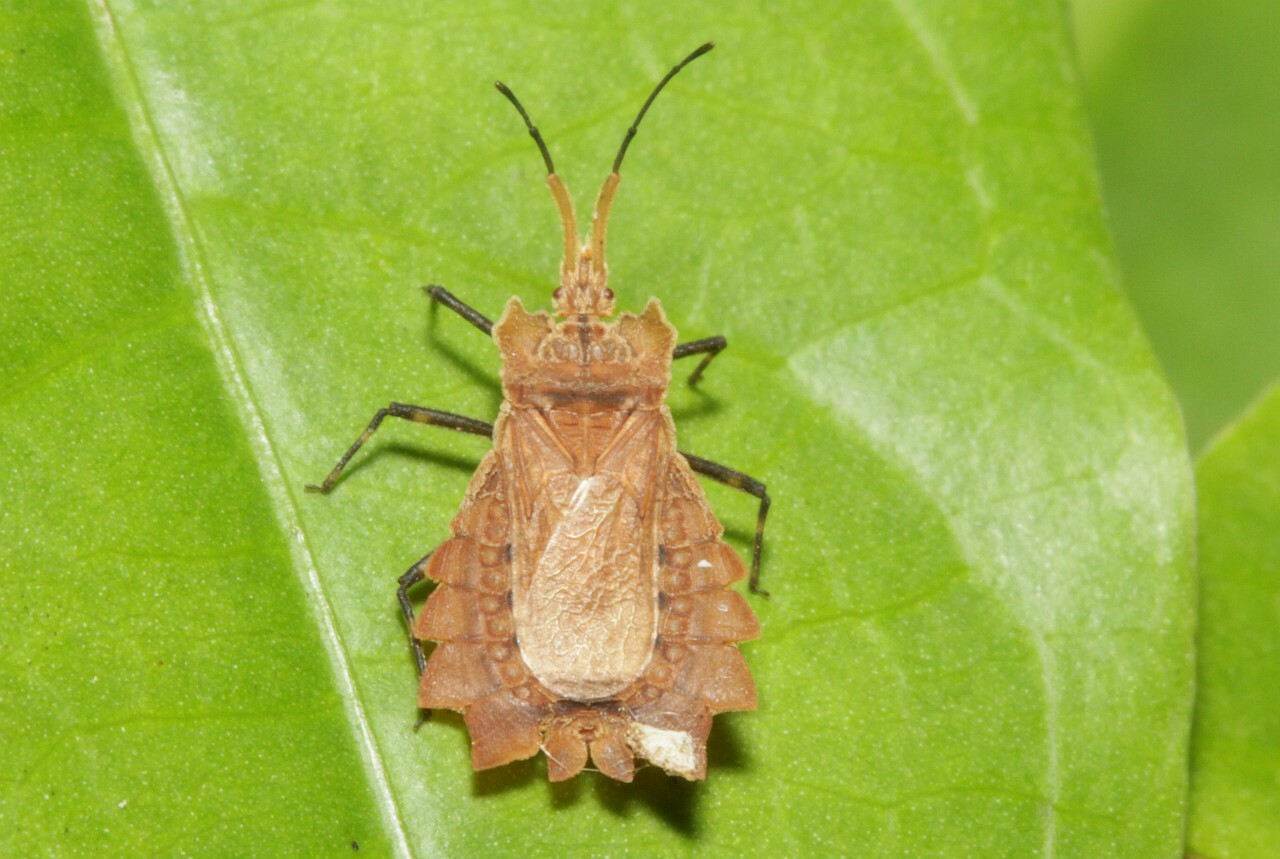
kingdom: Animalia
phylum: Arthropoda
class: Insecta
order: Hemiptera
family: Aradidae
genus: Phyllotingis
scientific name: Phyllotingis lanceolata
